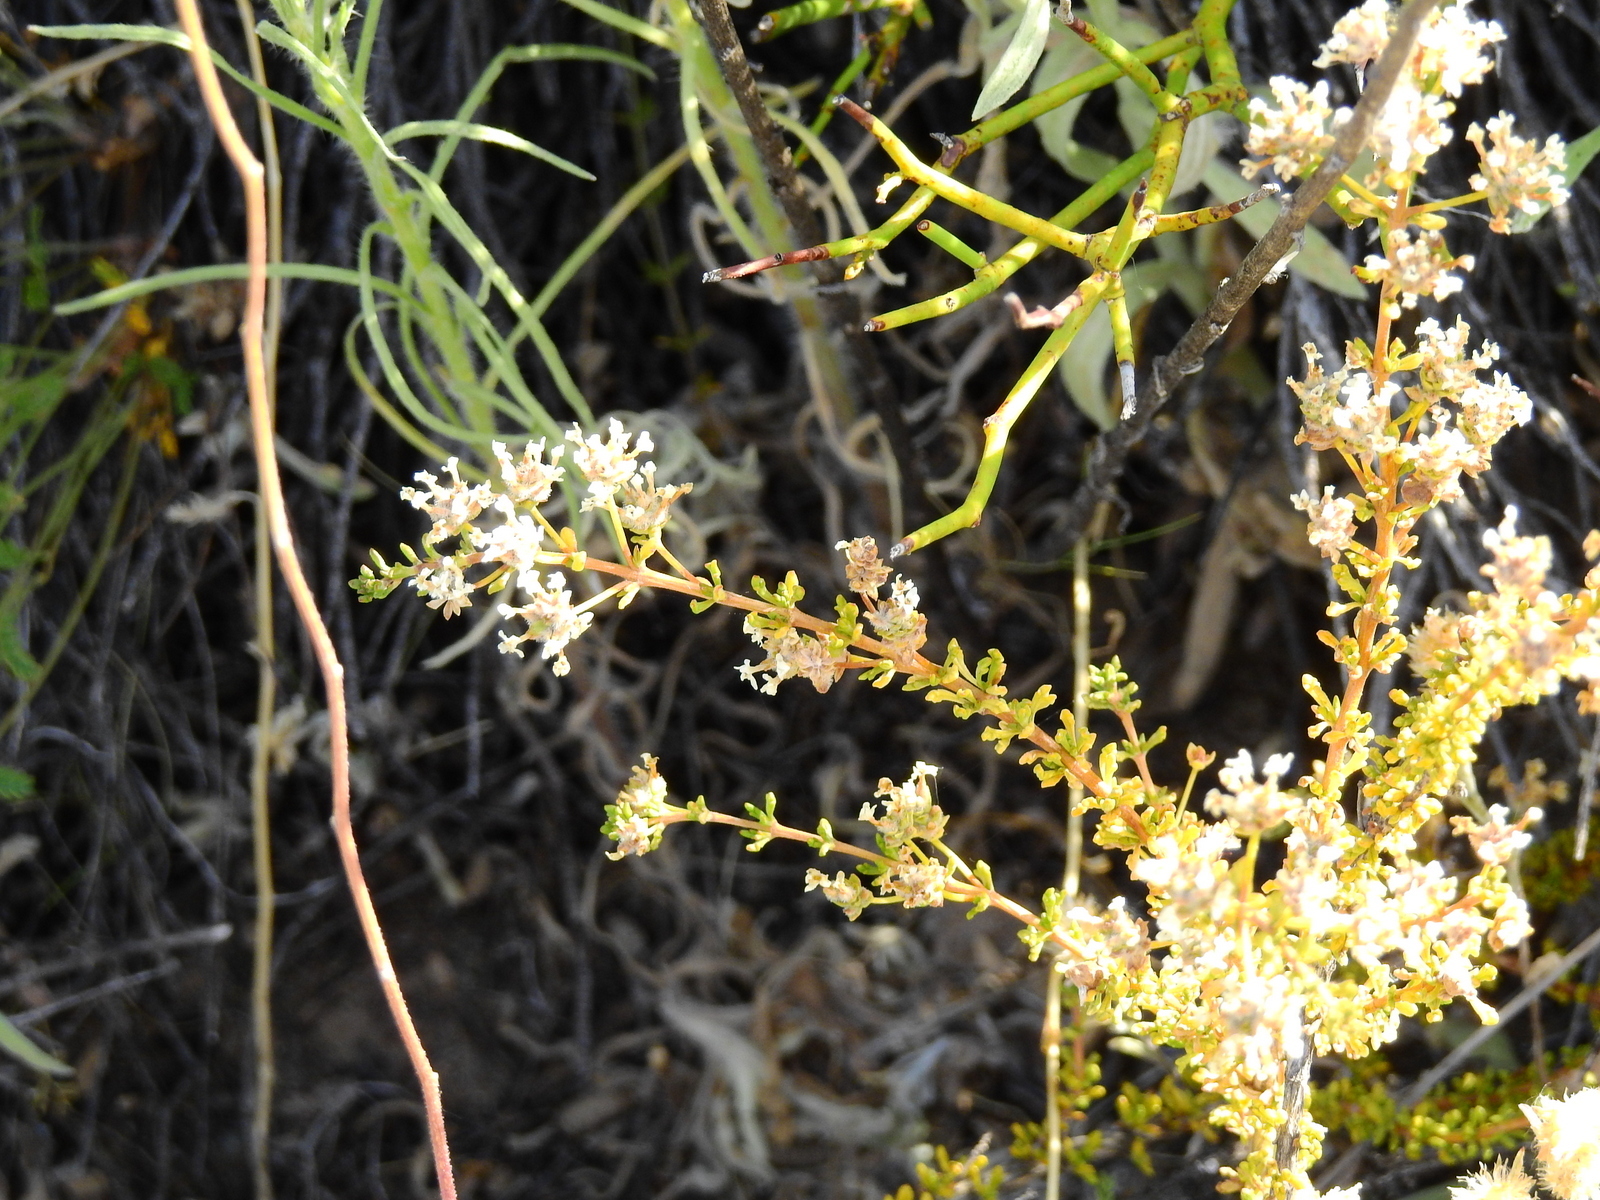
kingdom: Plantae
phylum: Tracheophyta
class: Magnoliopsida
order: Lamiales
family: Verbenaceae
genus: Acantholippia
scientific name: Acantholippia seriphioides
